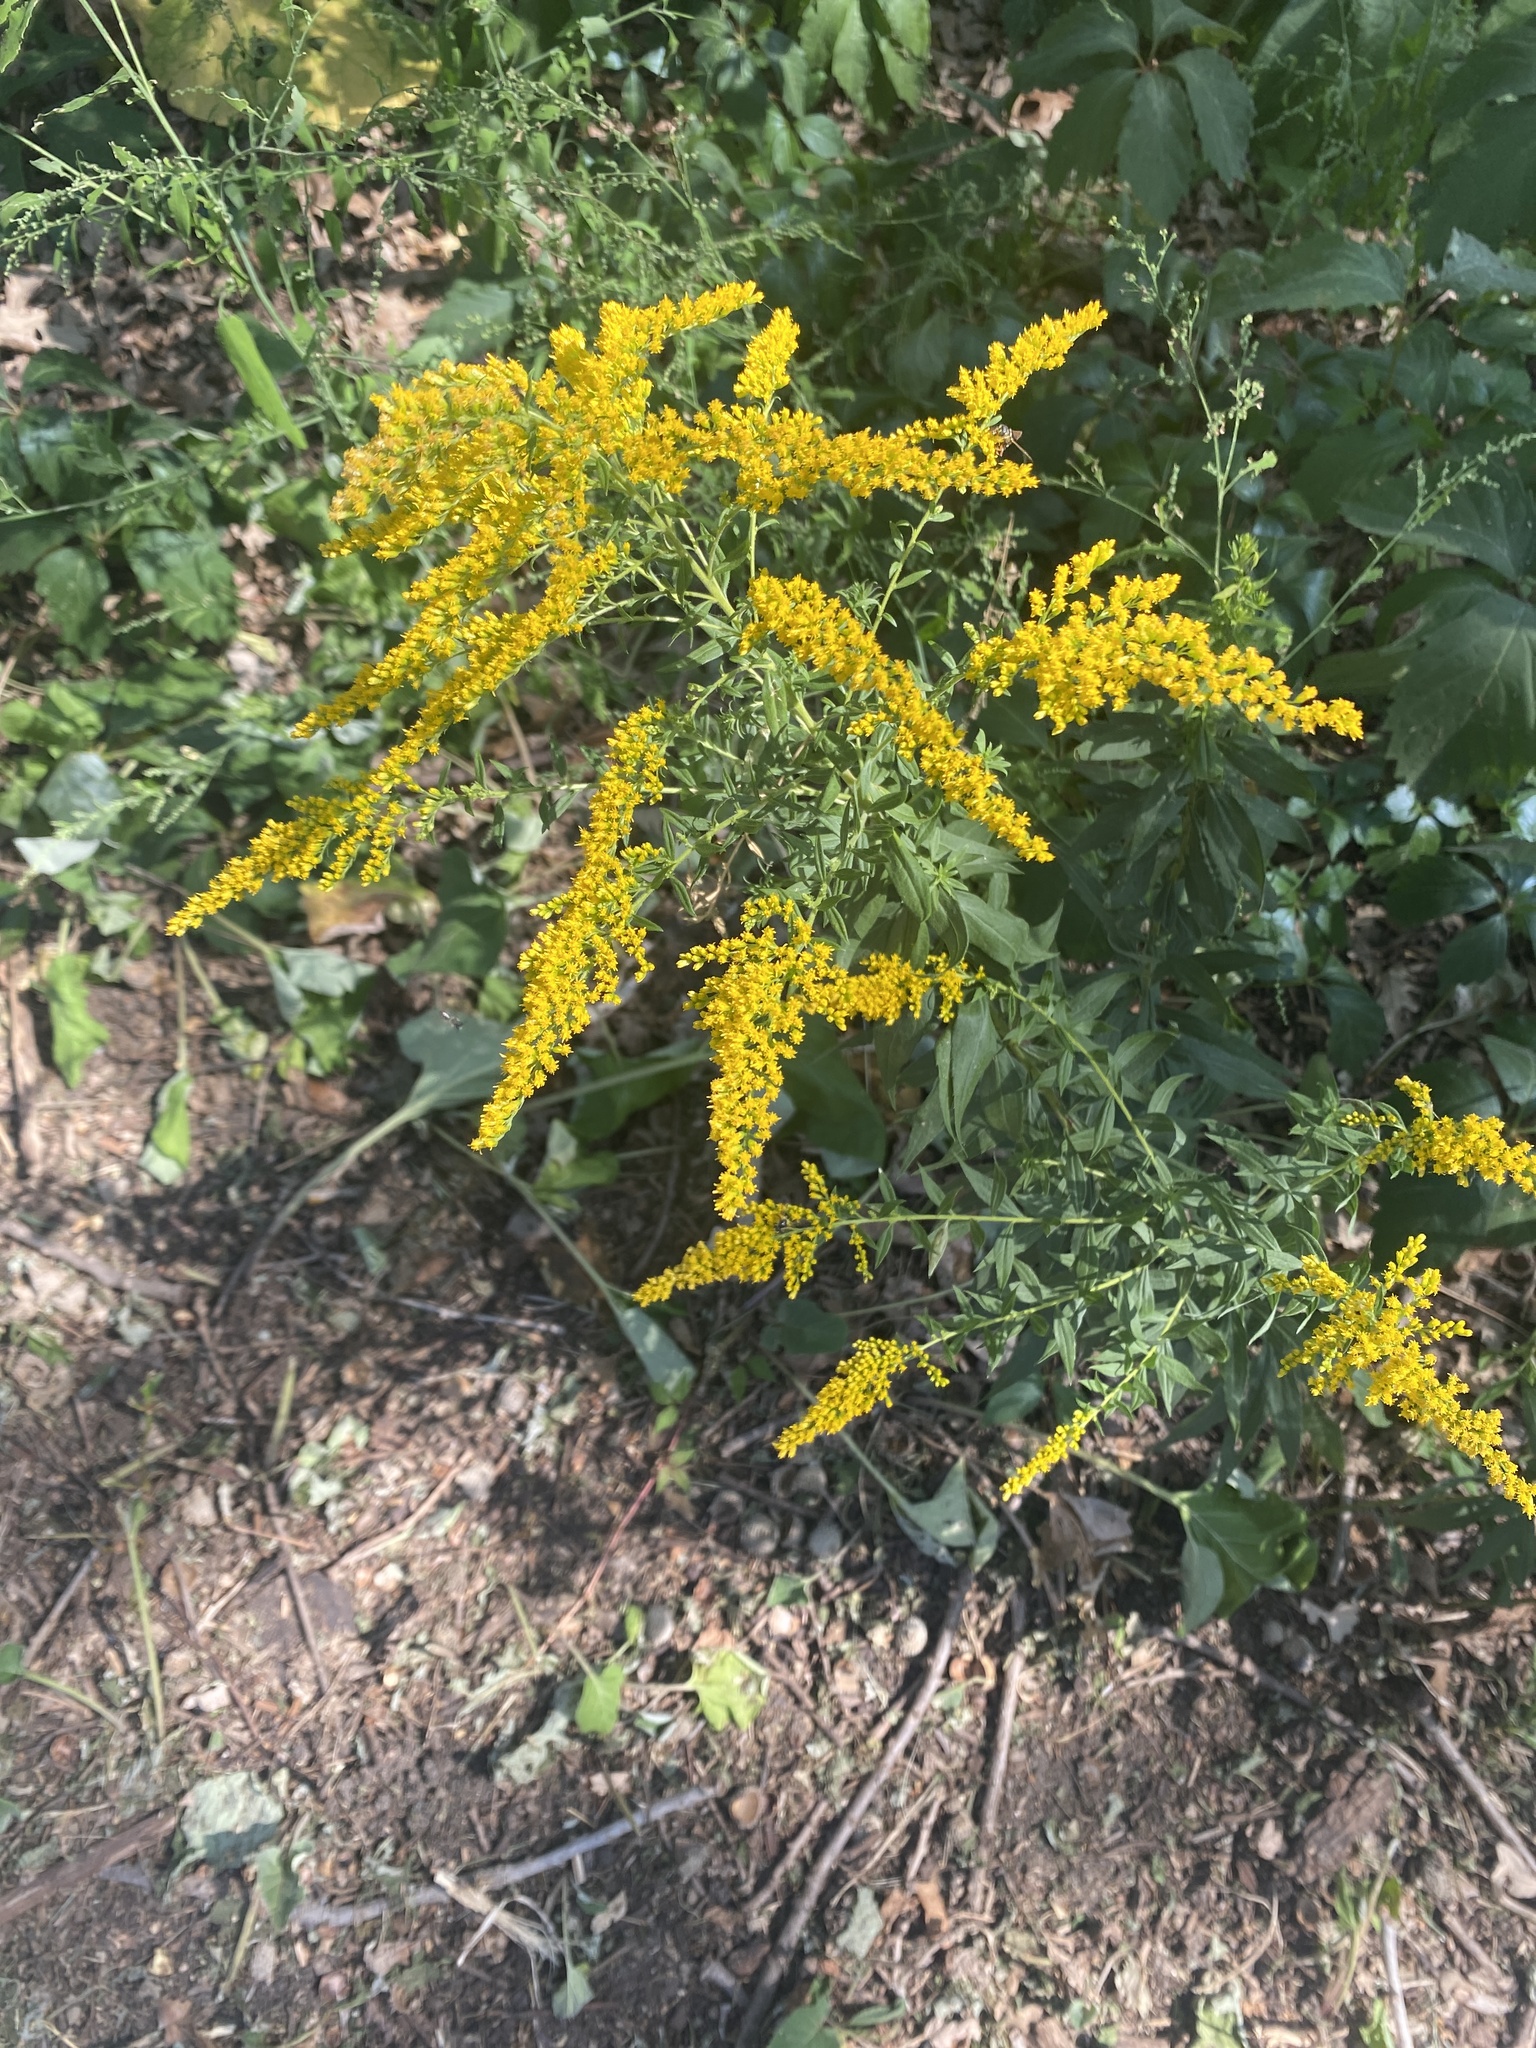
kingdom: Plantae
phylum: Tracheophyta
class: Magnoliopsida
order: Asterales
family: Asteraceae
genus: Solidago
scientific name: Solidago juncea
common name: Early goldenrod
